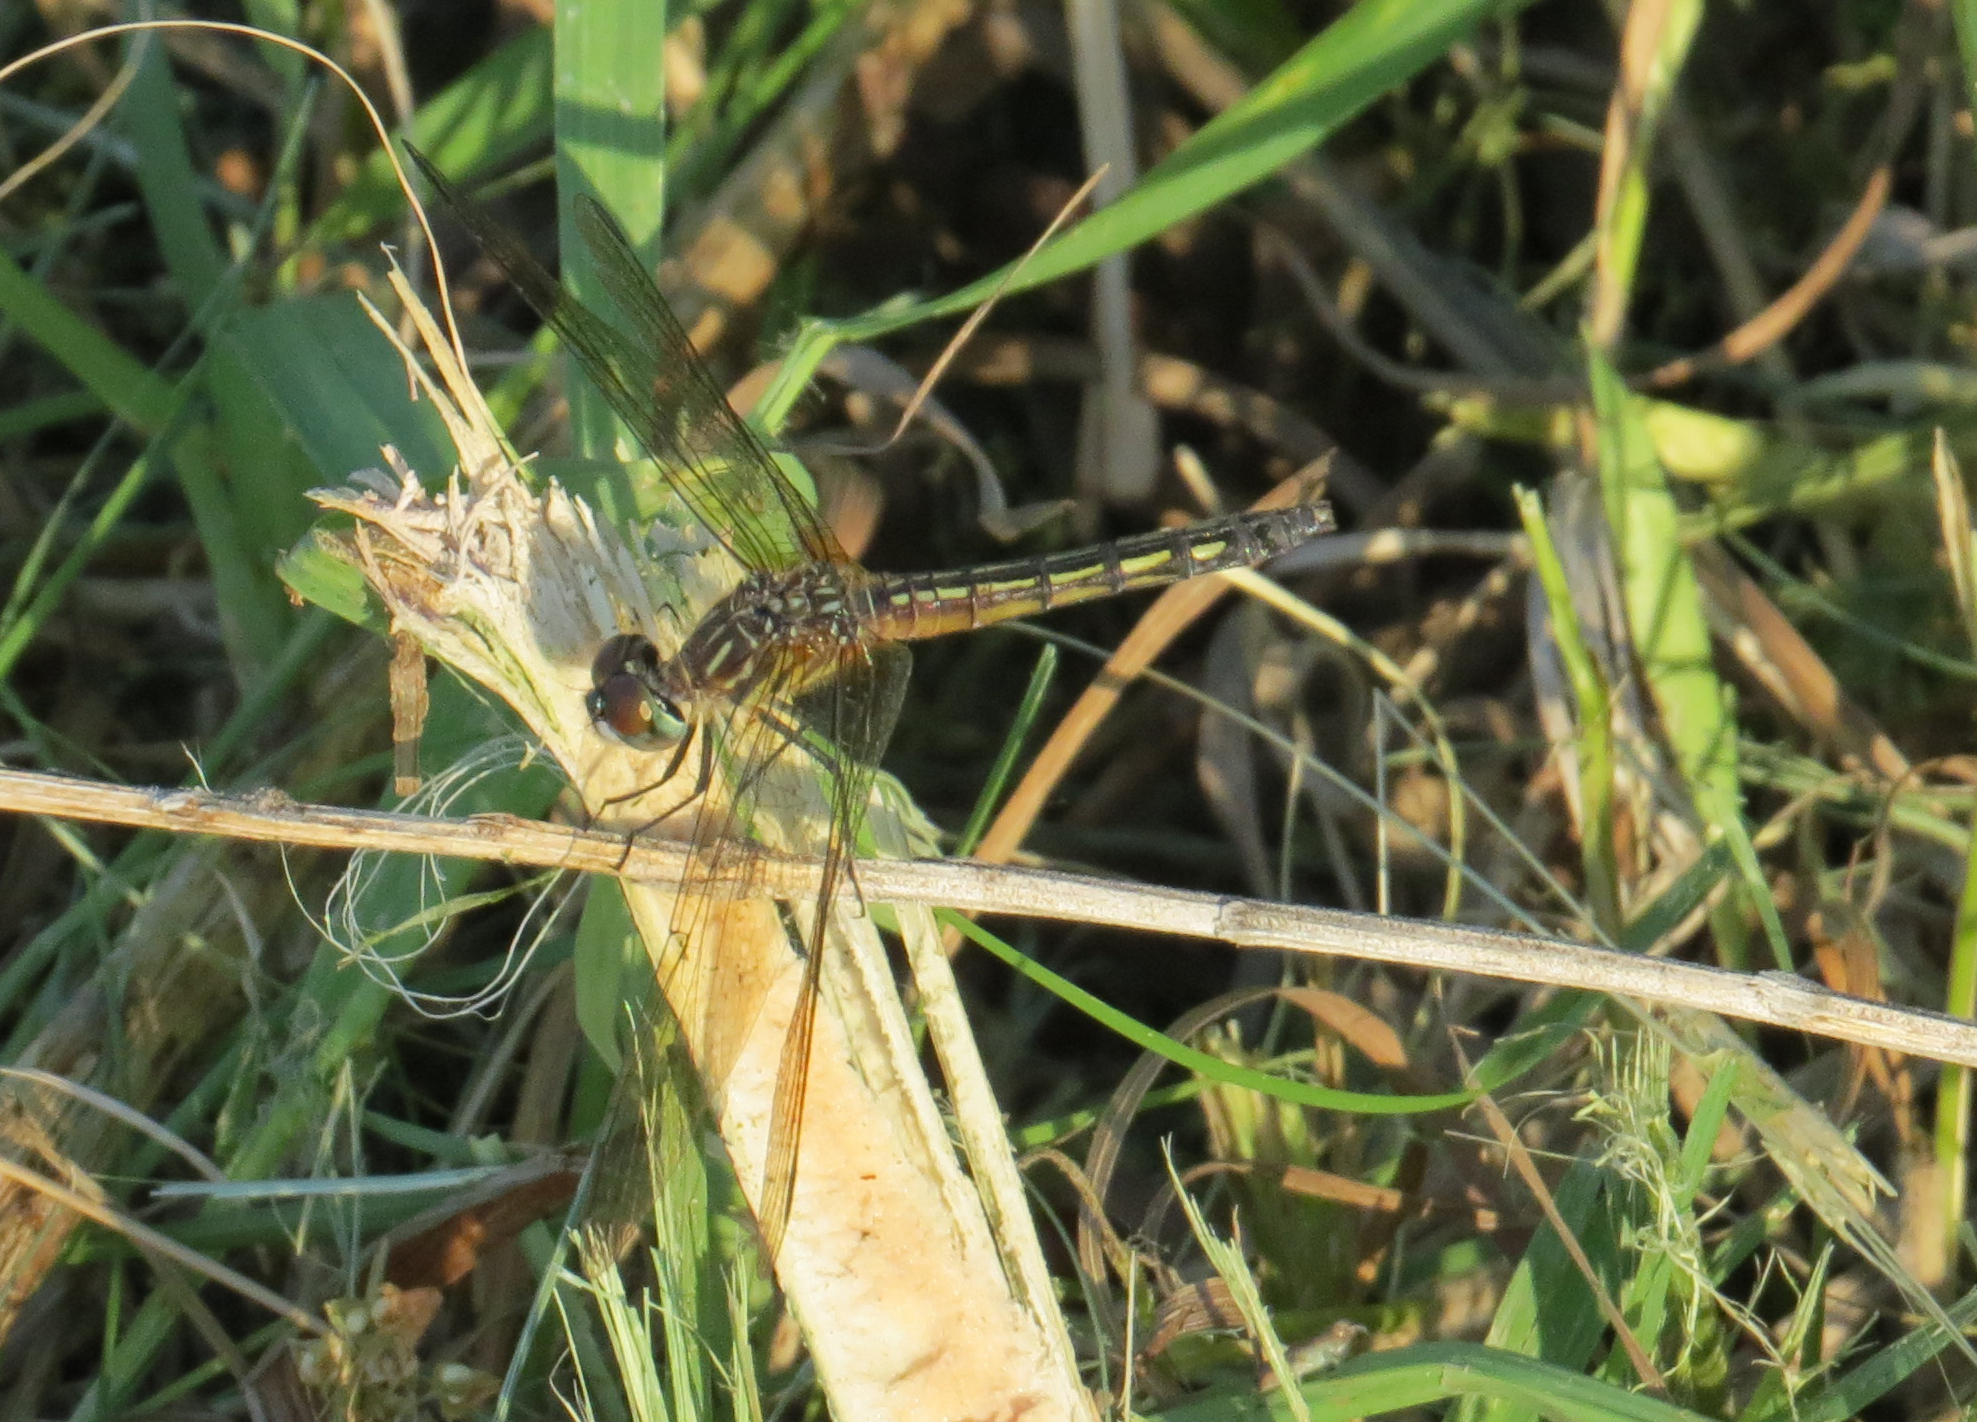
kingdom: Animalia
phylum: Arthropoda
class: Insecta
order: Odonata
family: Libellulidae
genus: Pachydiplax
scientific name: Pachydiplax longipennis
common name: Blue dasher
